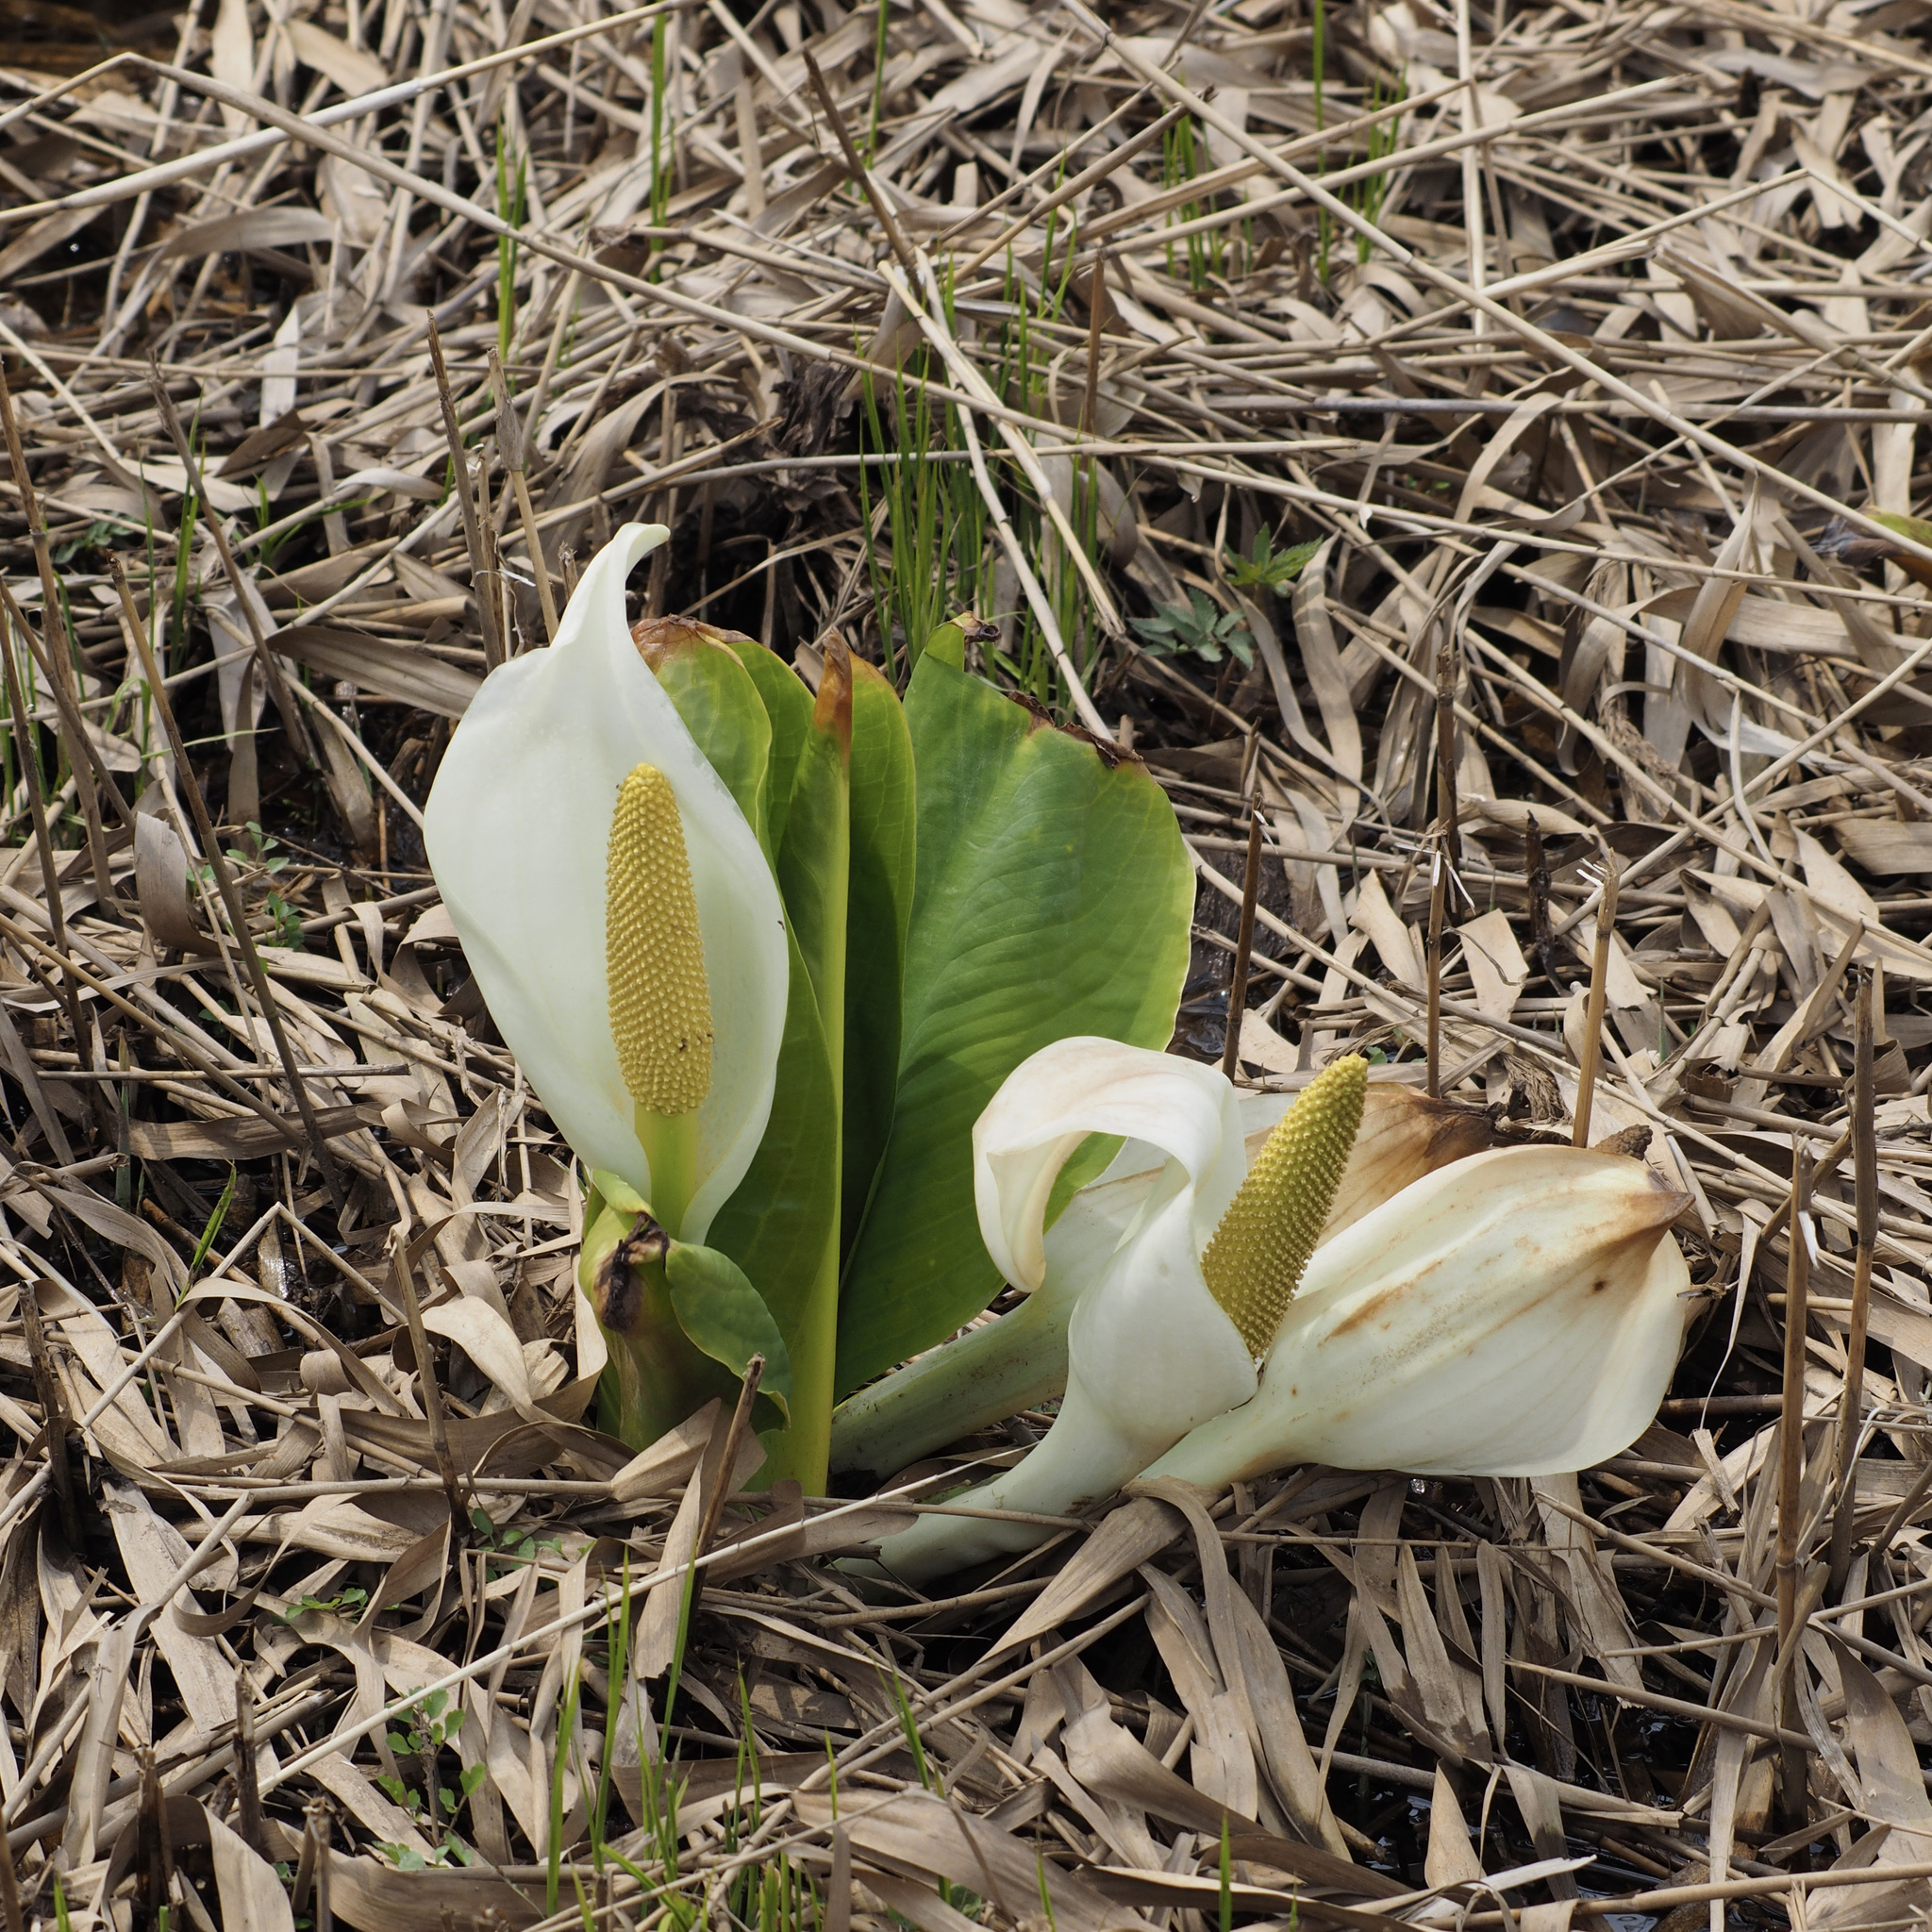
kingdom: Plantae
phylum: Tracheophyta
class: Liliopsida
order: Alismatales
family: Araceae
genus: Lysichiton
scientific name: Lysichiton camtschatcensis
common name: Asian skunk-cabbage
